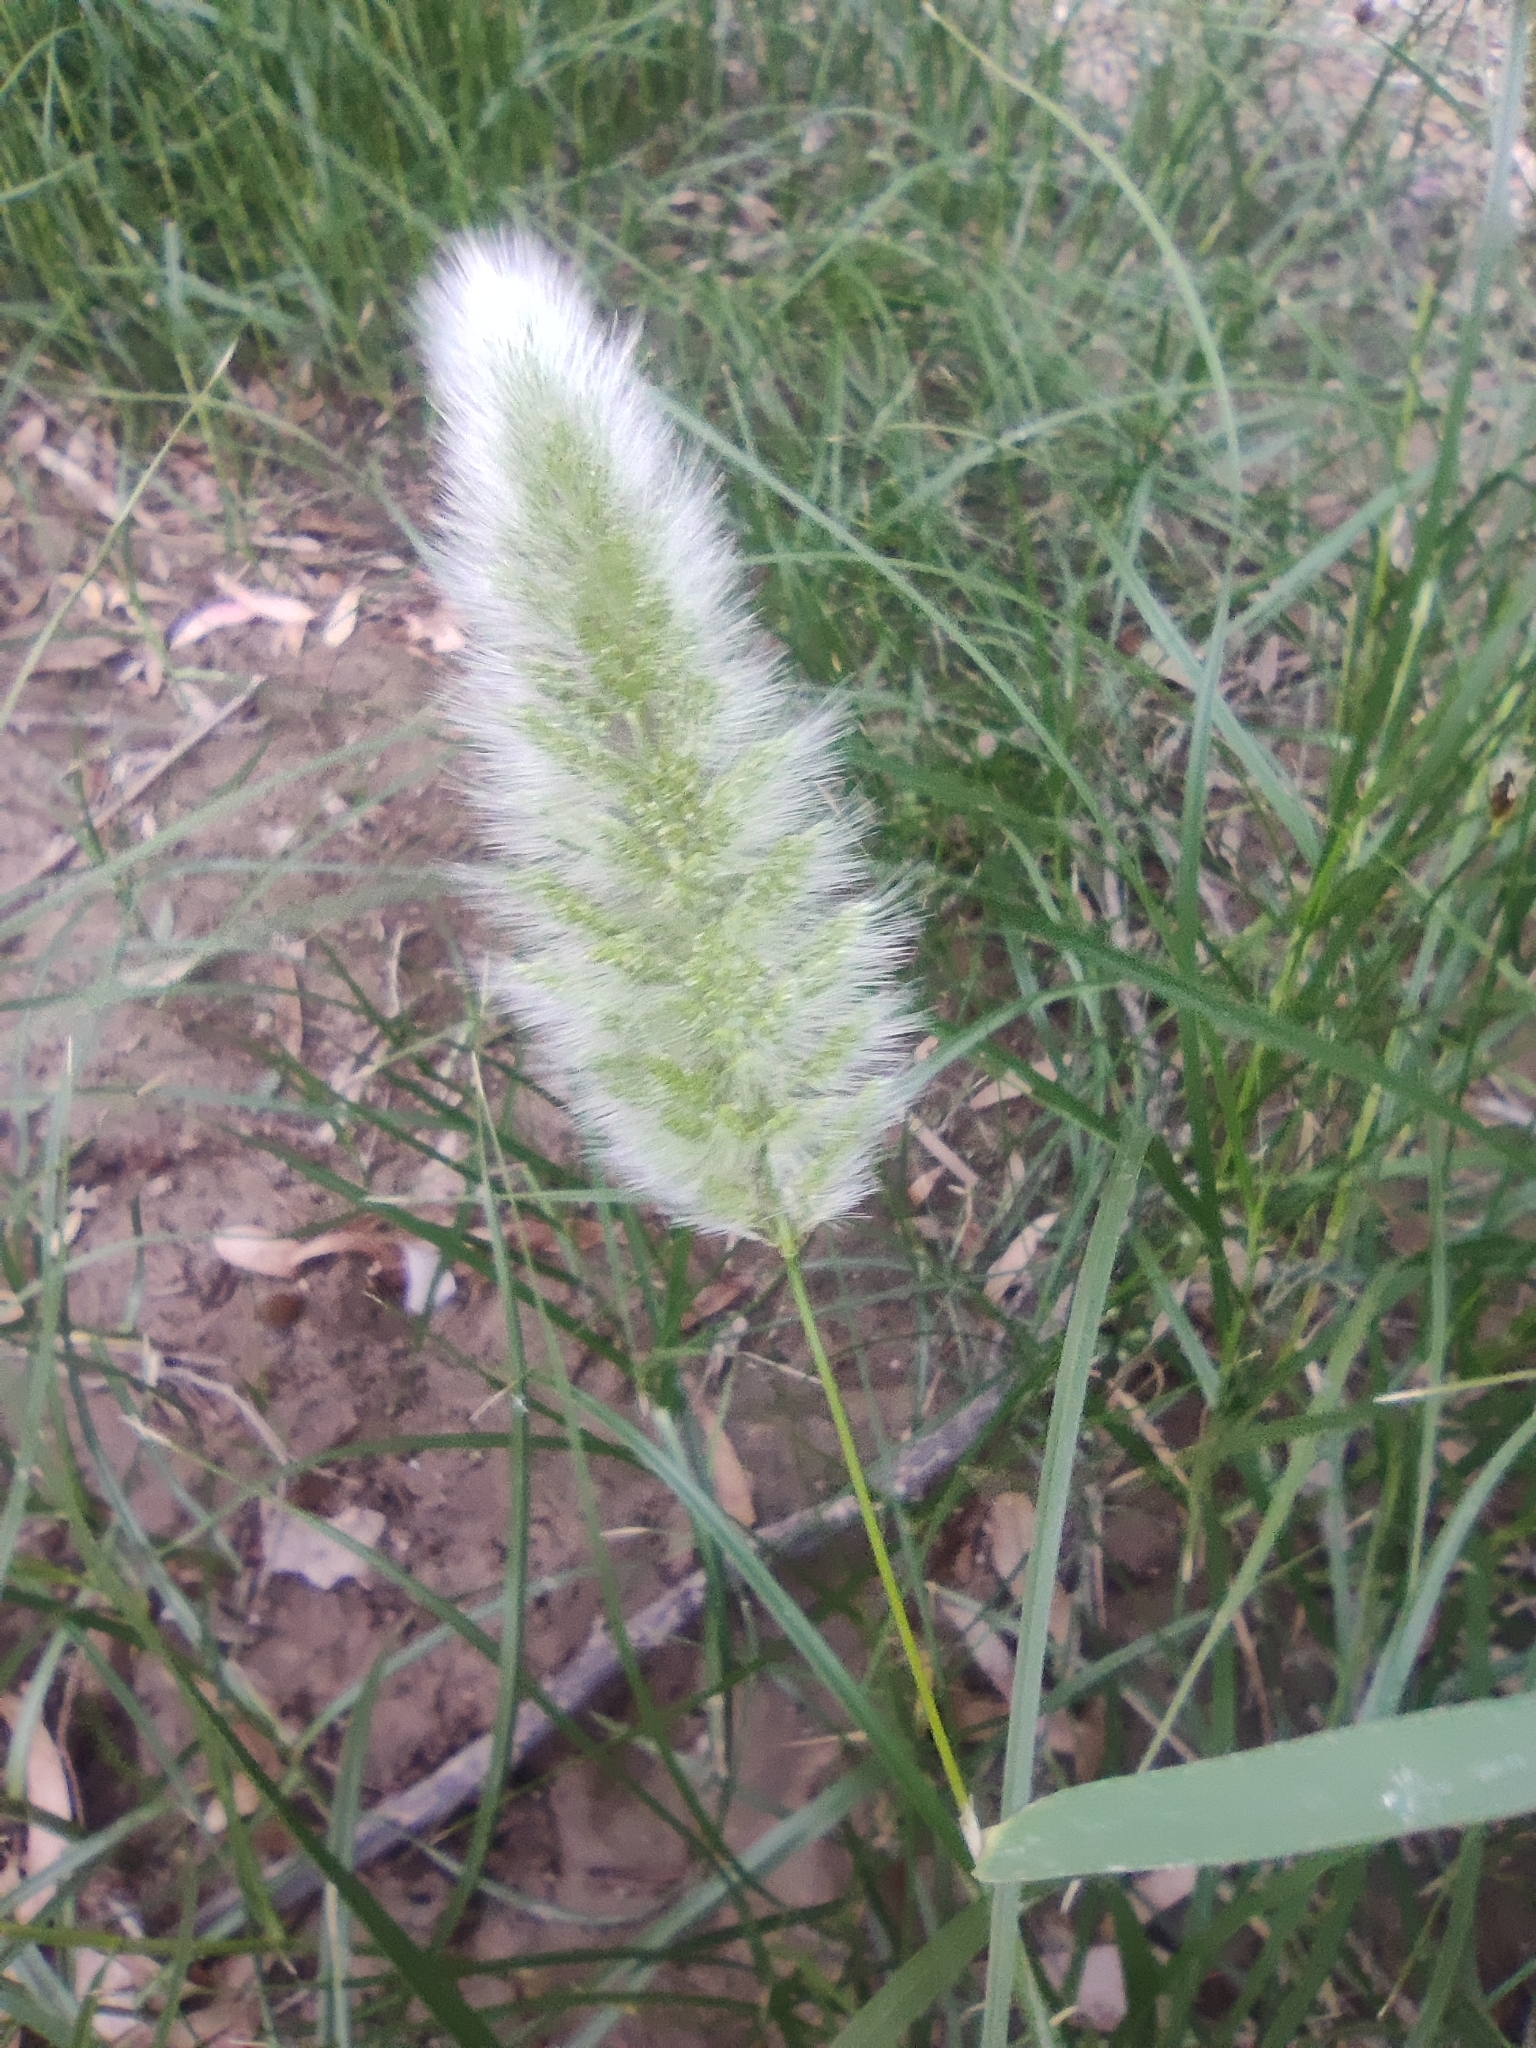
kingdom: Plantae
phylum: Tracheophyta
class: Liliopsida
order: Poales
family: Poaceae
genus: Polypogon
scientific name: Polypogon monspeliensis
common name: Annual rabbitsfoot grass
